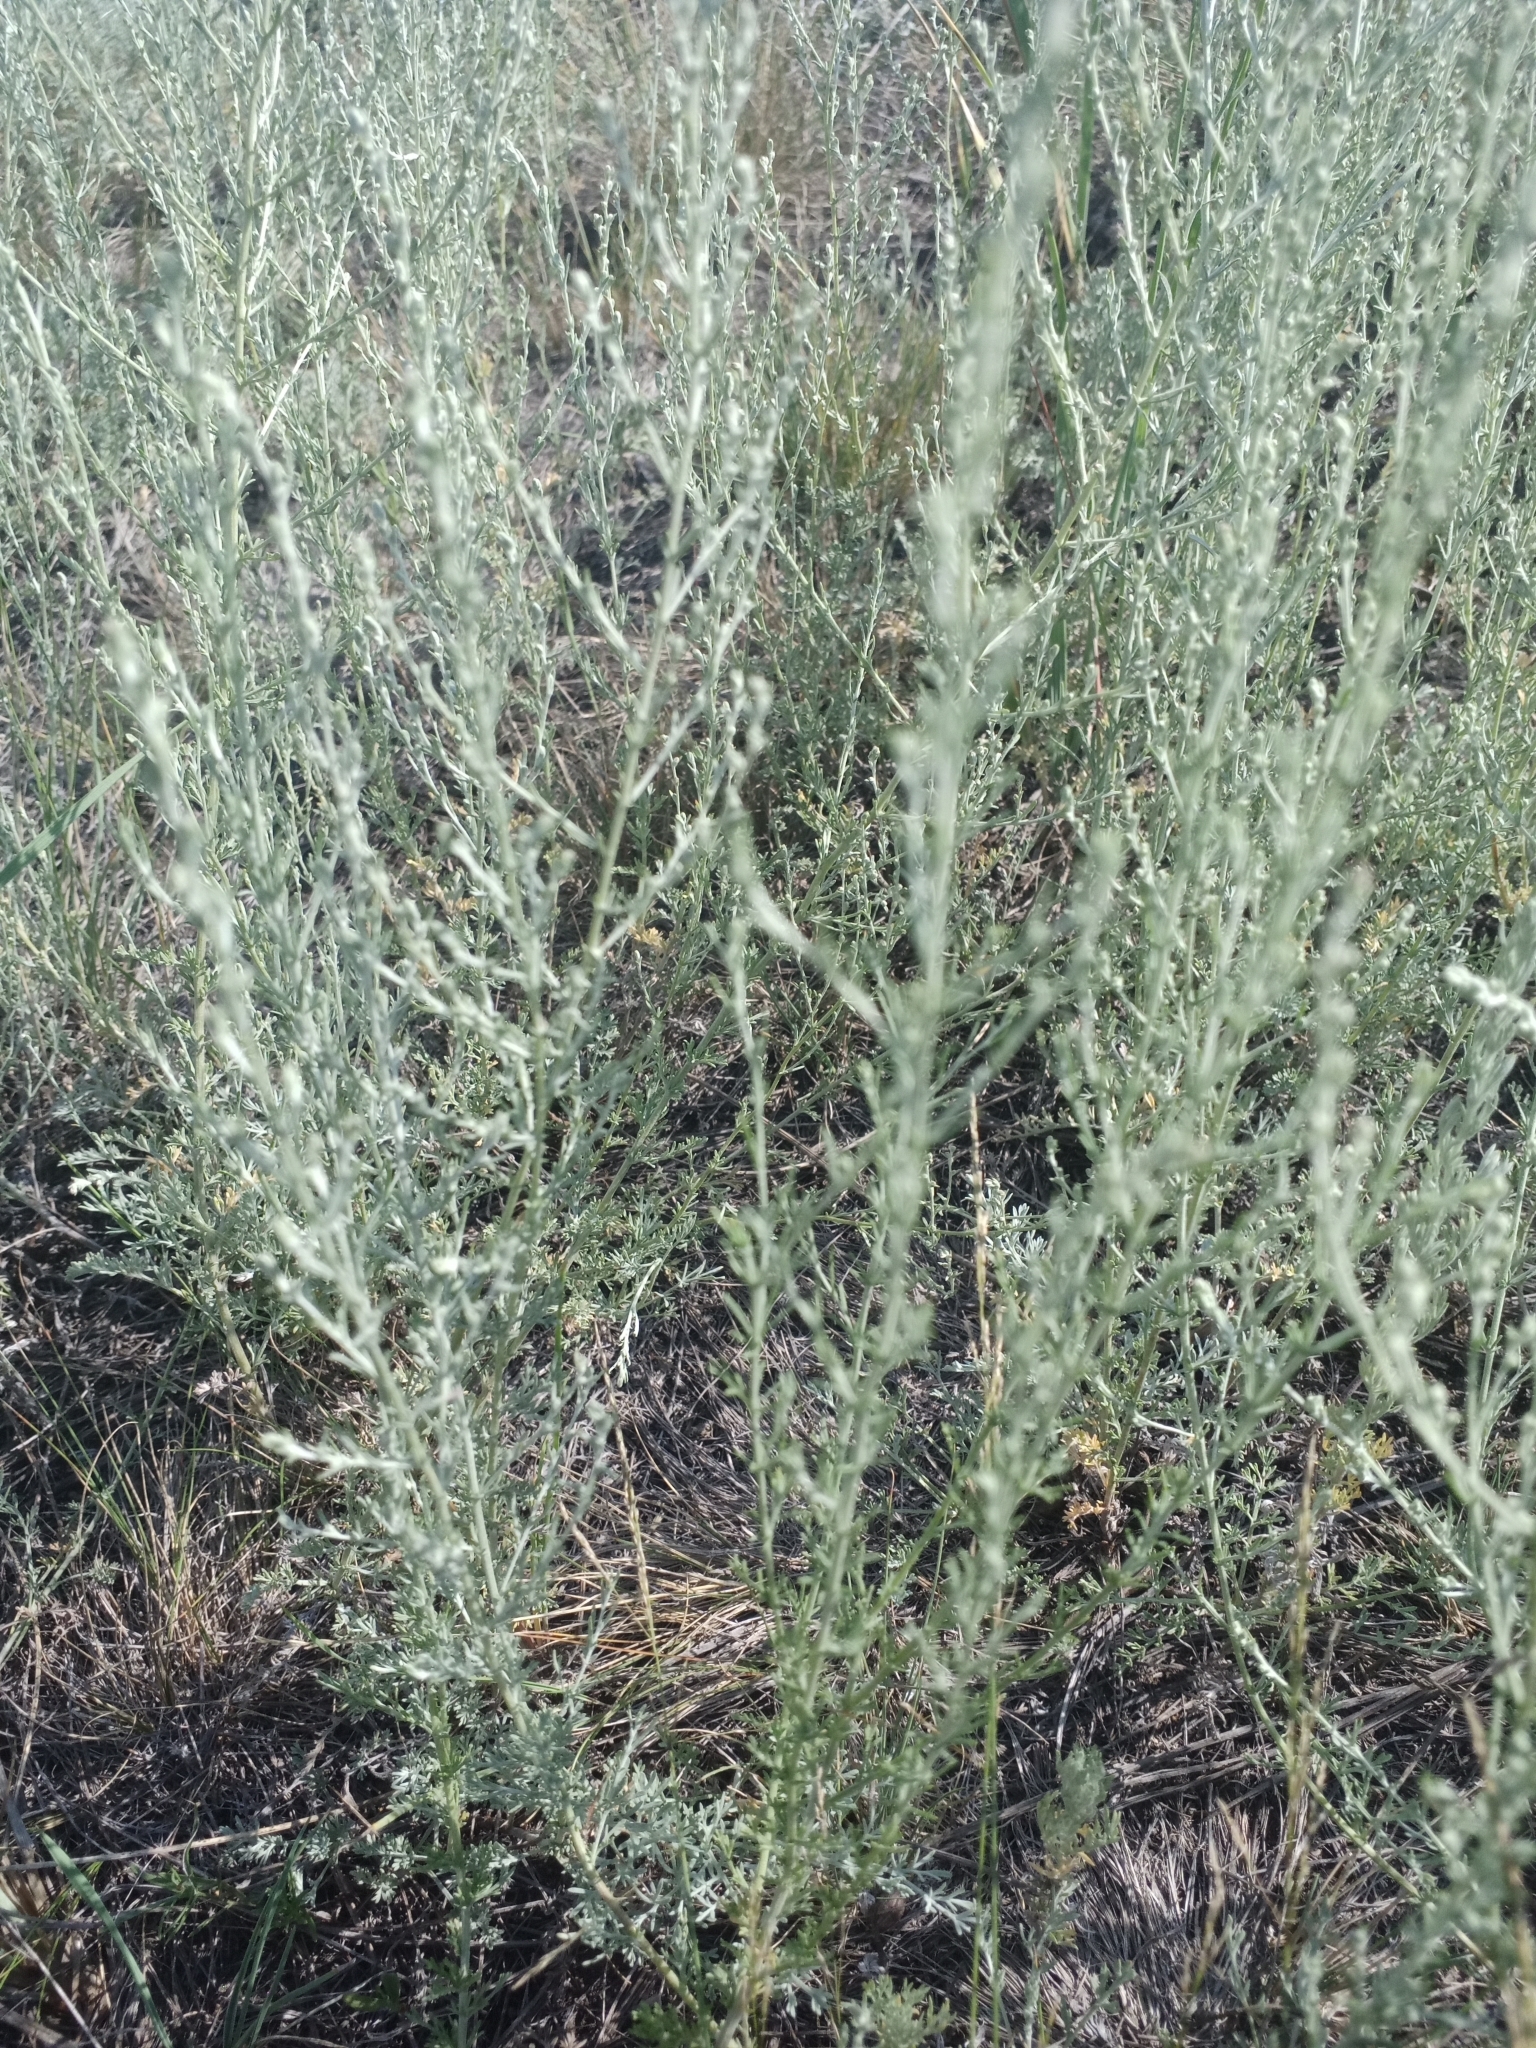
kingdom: Plantae
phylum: Tracheophyta
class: Magnoliopsida
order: Asterales
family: Asteraceae
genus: Artemisia
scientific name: Artemisia nitrosa
